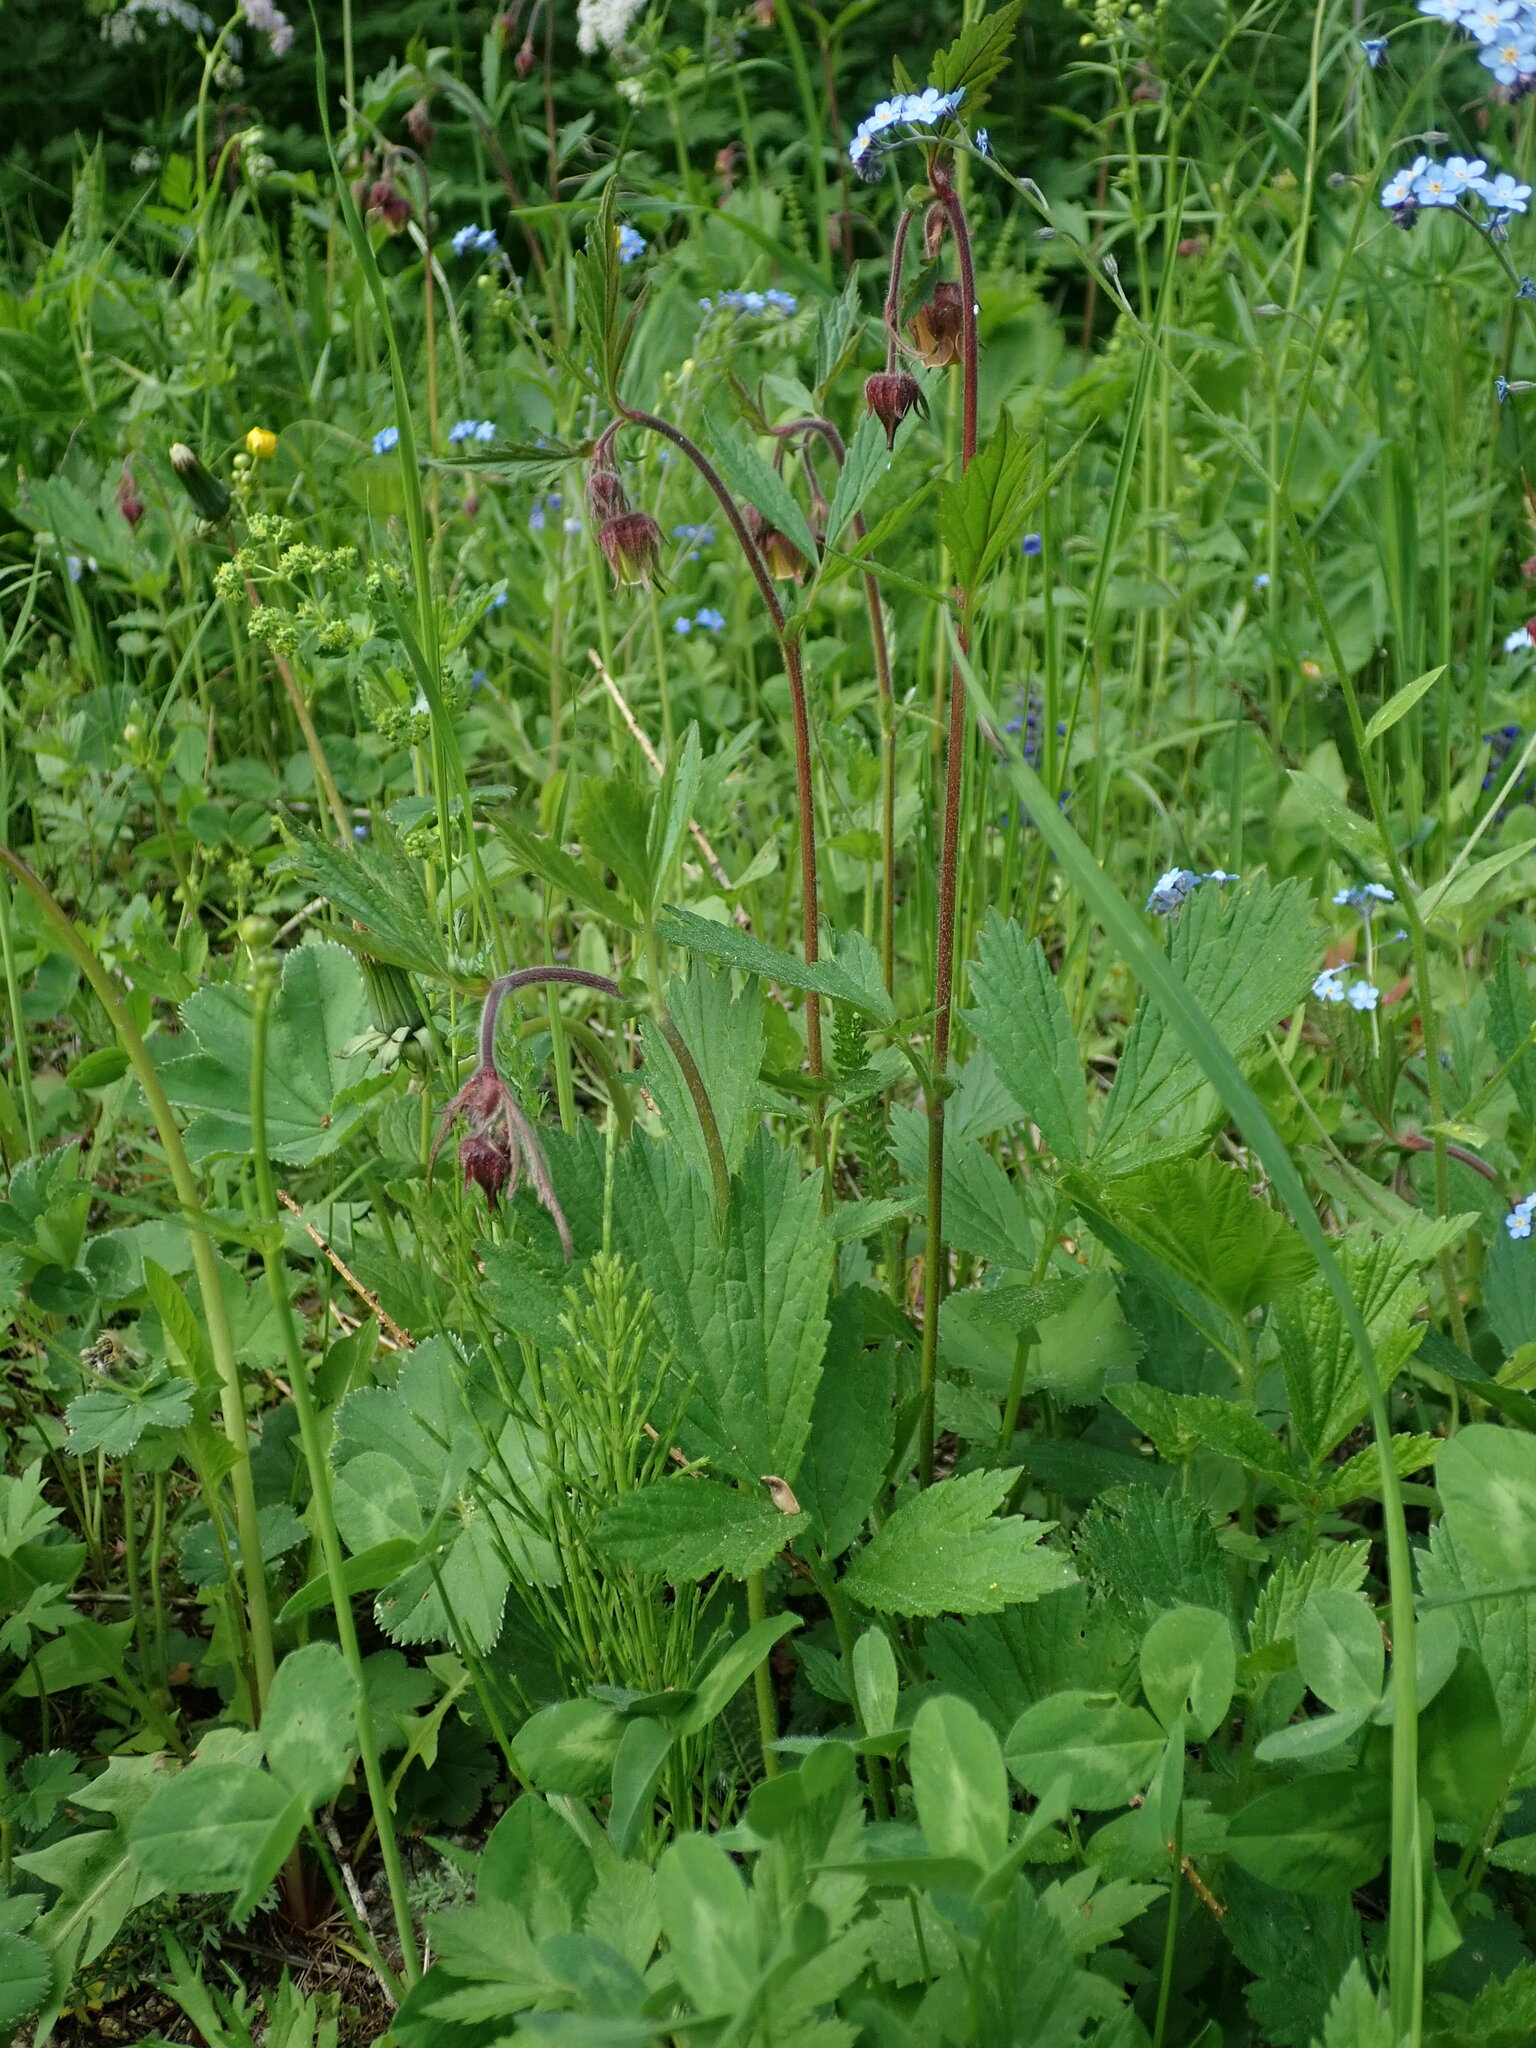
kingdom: Plantae
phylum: Tracheophyta
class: Magnoliopsida
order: Rosales
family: Rosaceae
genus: Geum
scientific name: Geum rivale
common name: Water avens
